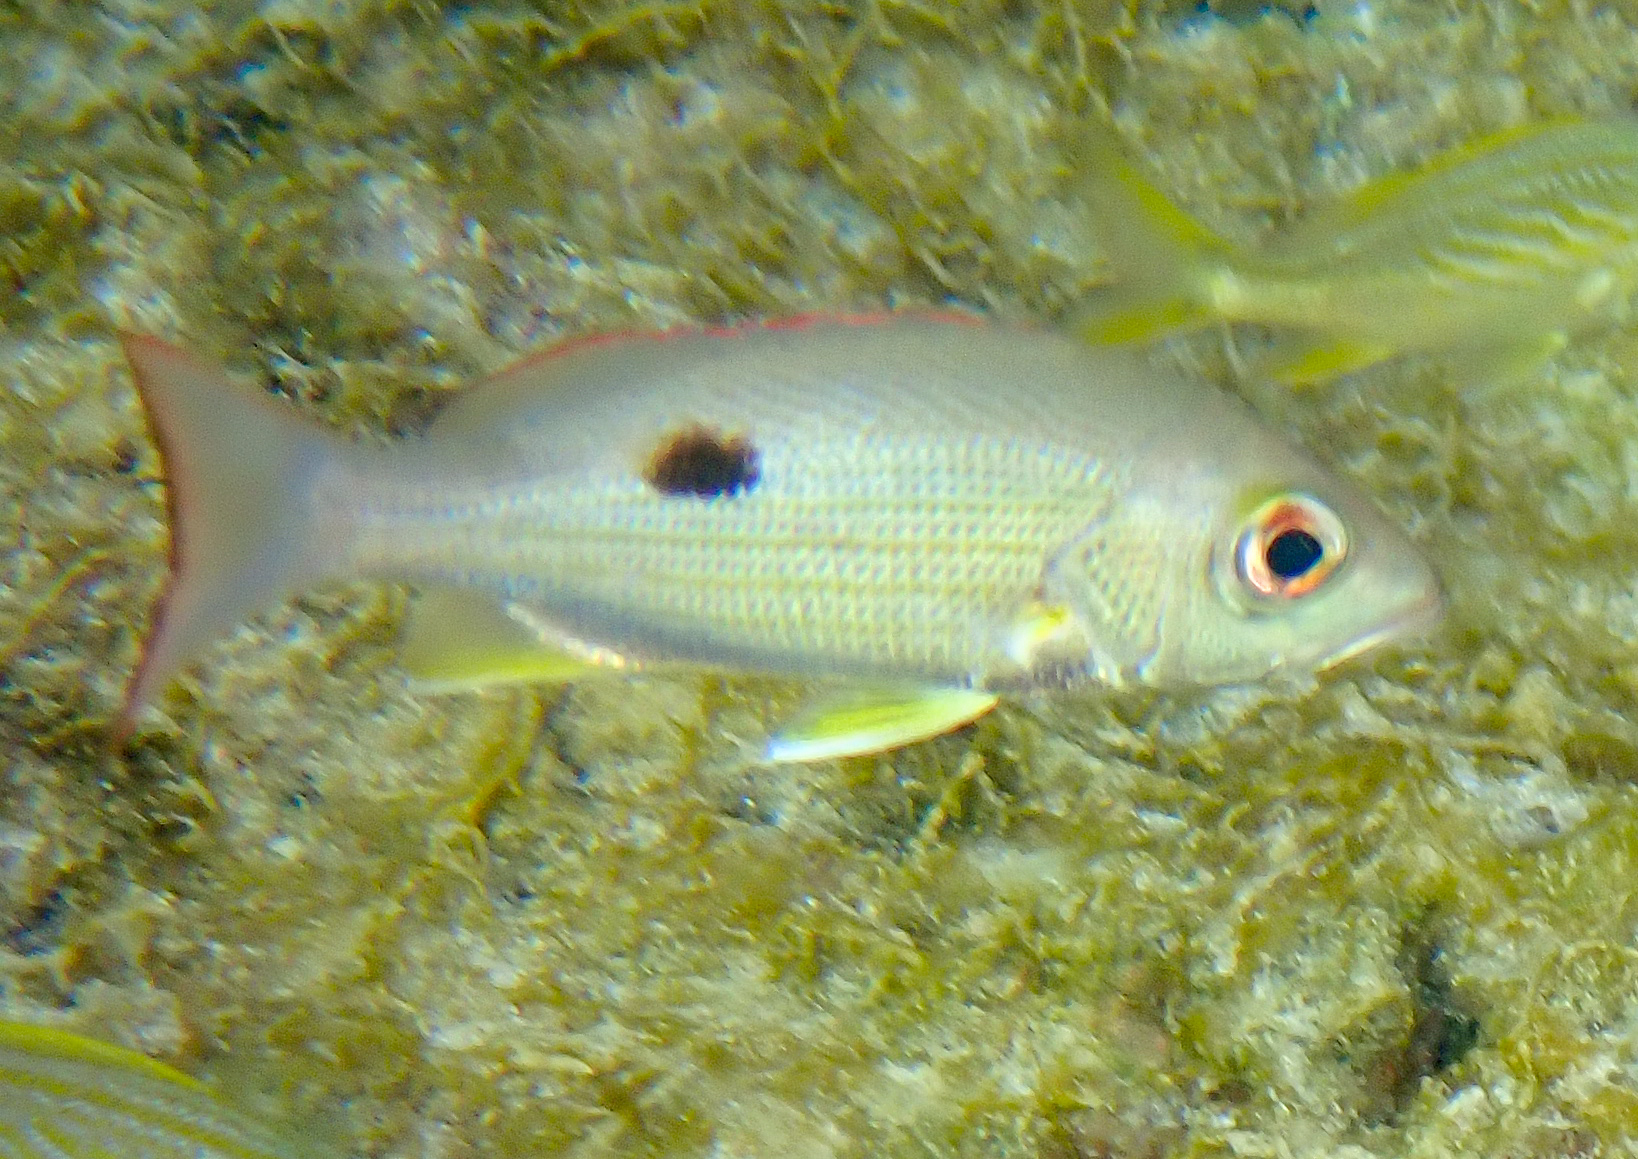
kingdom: Animalia
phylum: Chordata
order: Perciformes
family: Lutjanidae
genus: Lutjanus
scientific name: Lutjanus mahogoni
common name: Spot snapper
